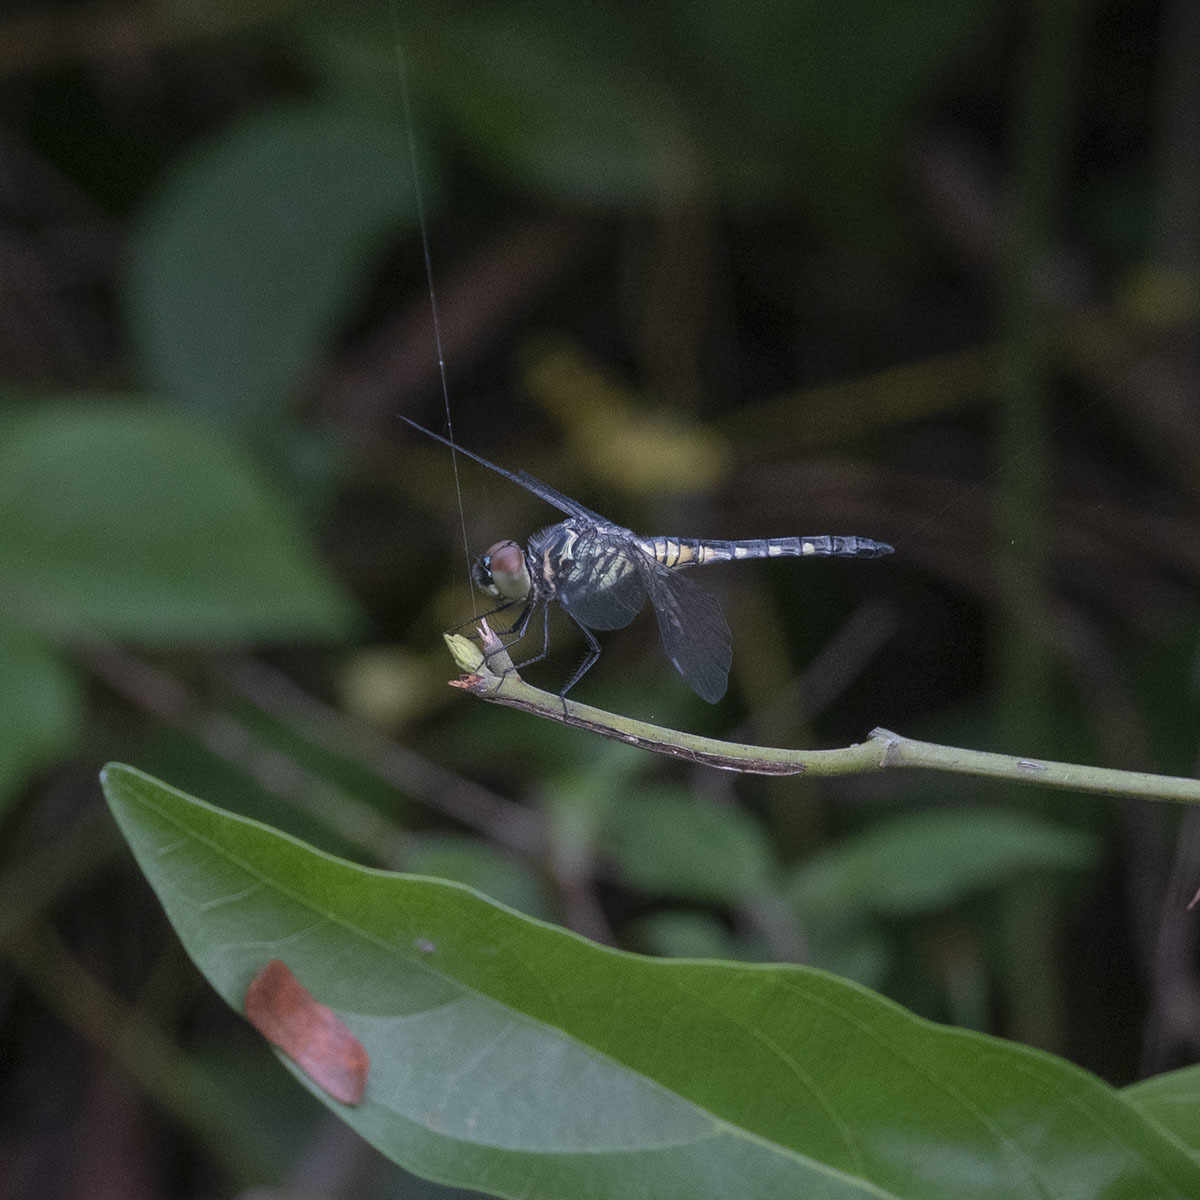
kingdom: Animalia
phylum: Arthropoda
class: Insecta
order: Odonata
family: Libellulidae
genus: Brachydiplax
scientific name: Brachydiplax sobrina
